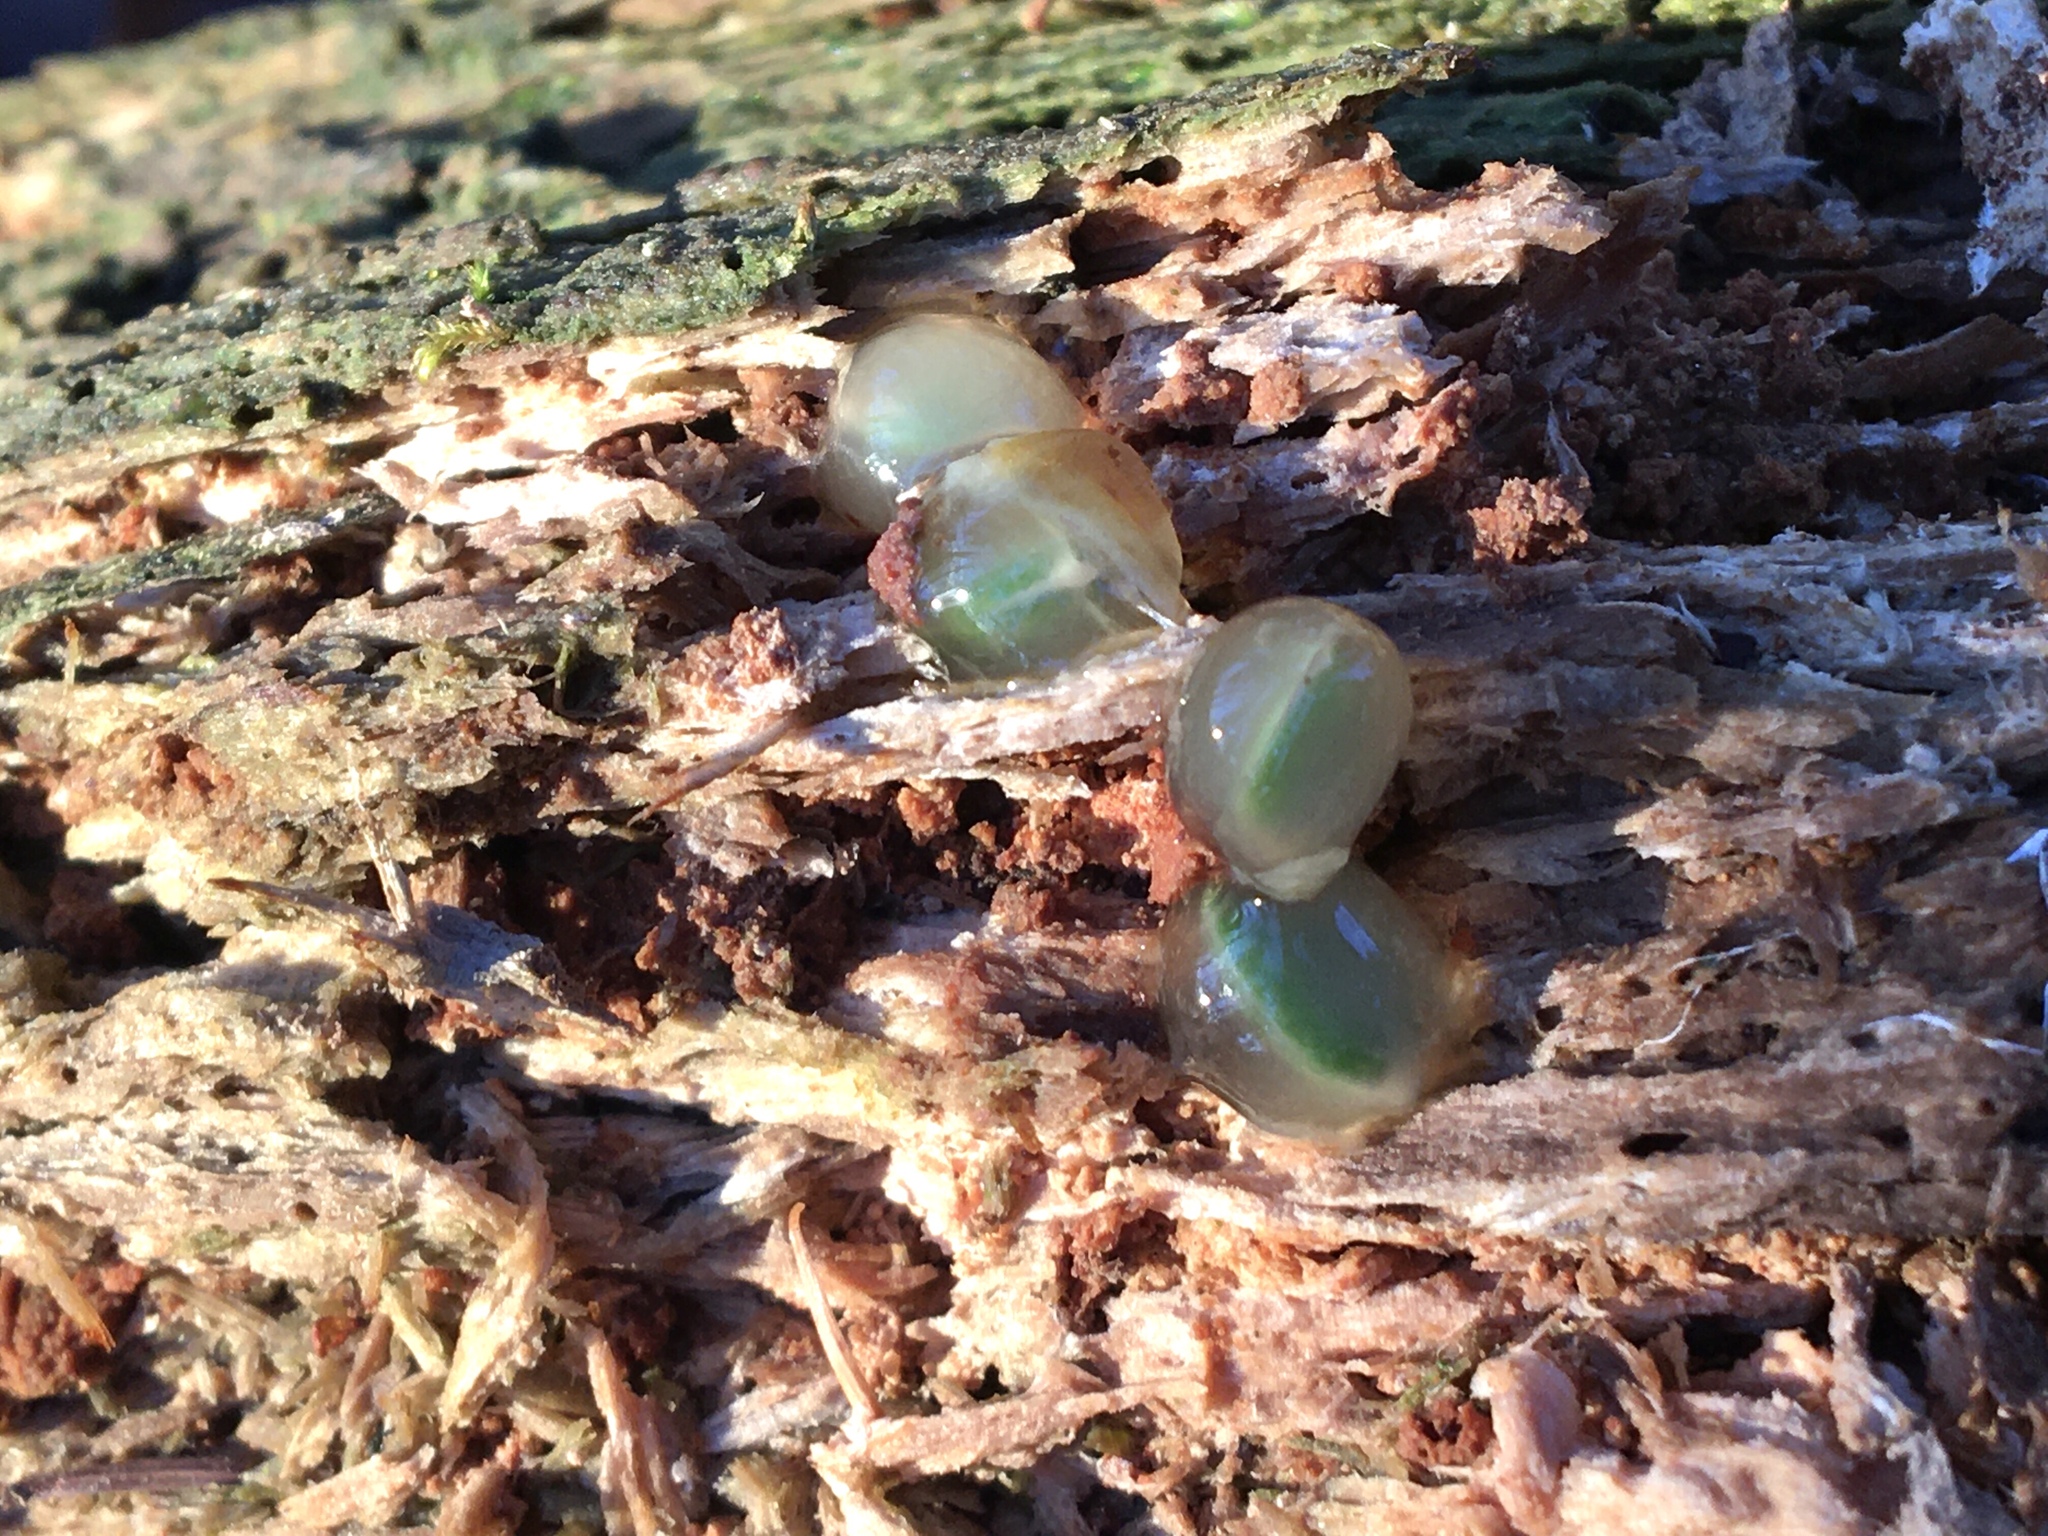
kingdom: Plantae
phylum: Tracheophyta
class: Magnoliopsida
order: Santalales
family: Viscaceae
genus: Viscum
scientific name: Viscum album
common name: Mistletoe
